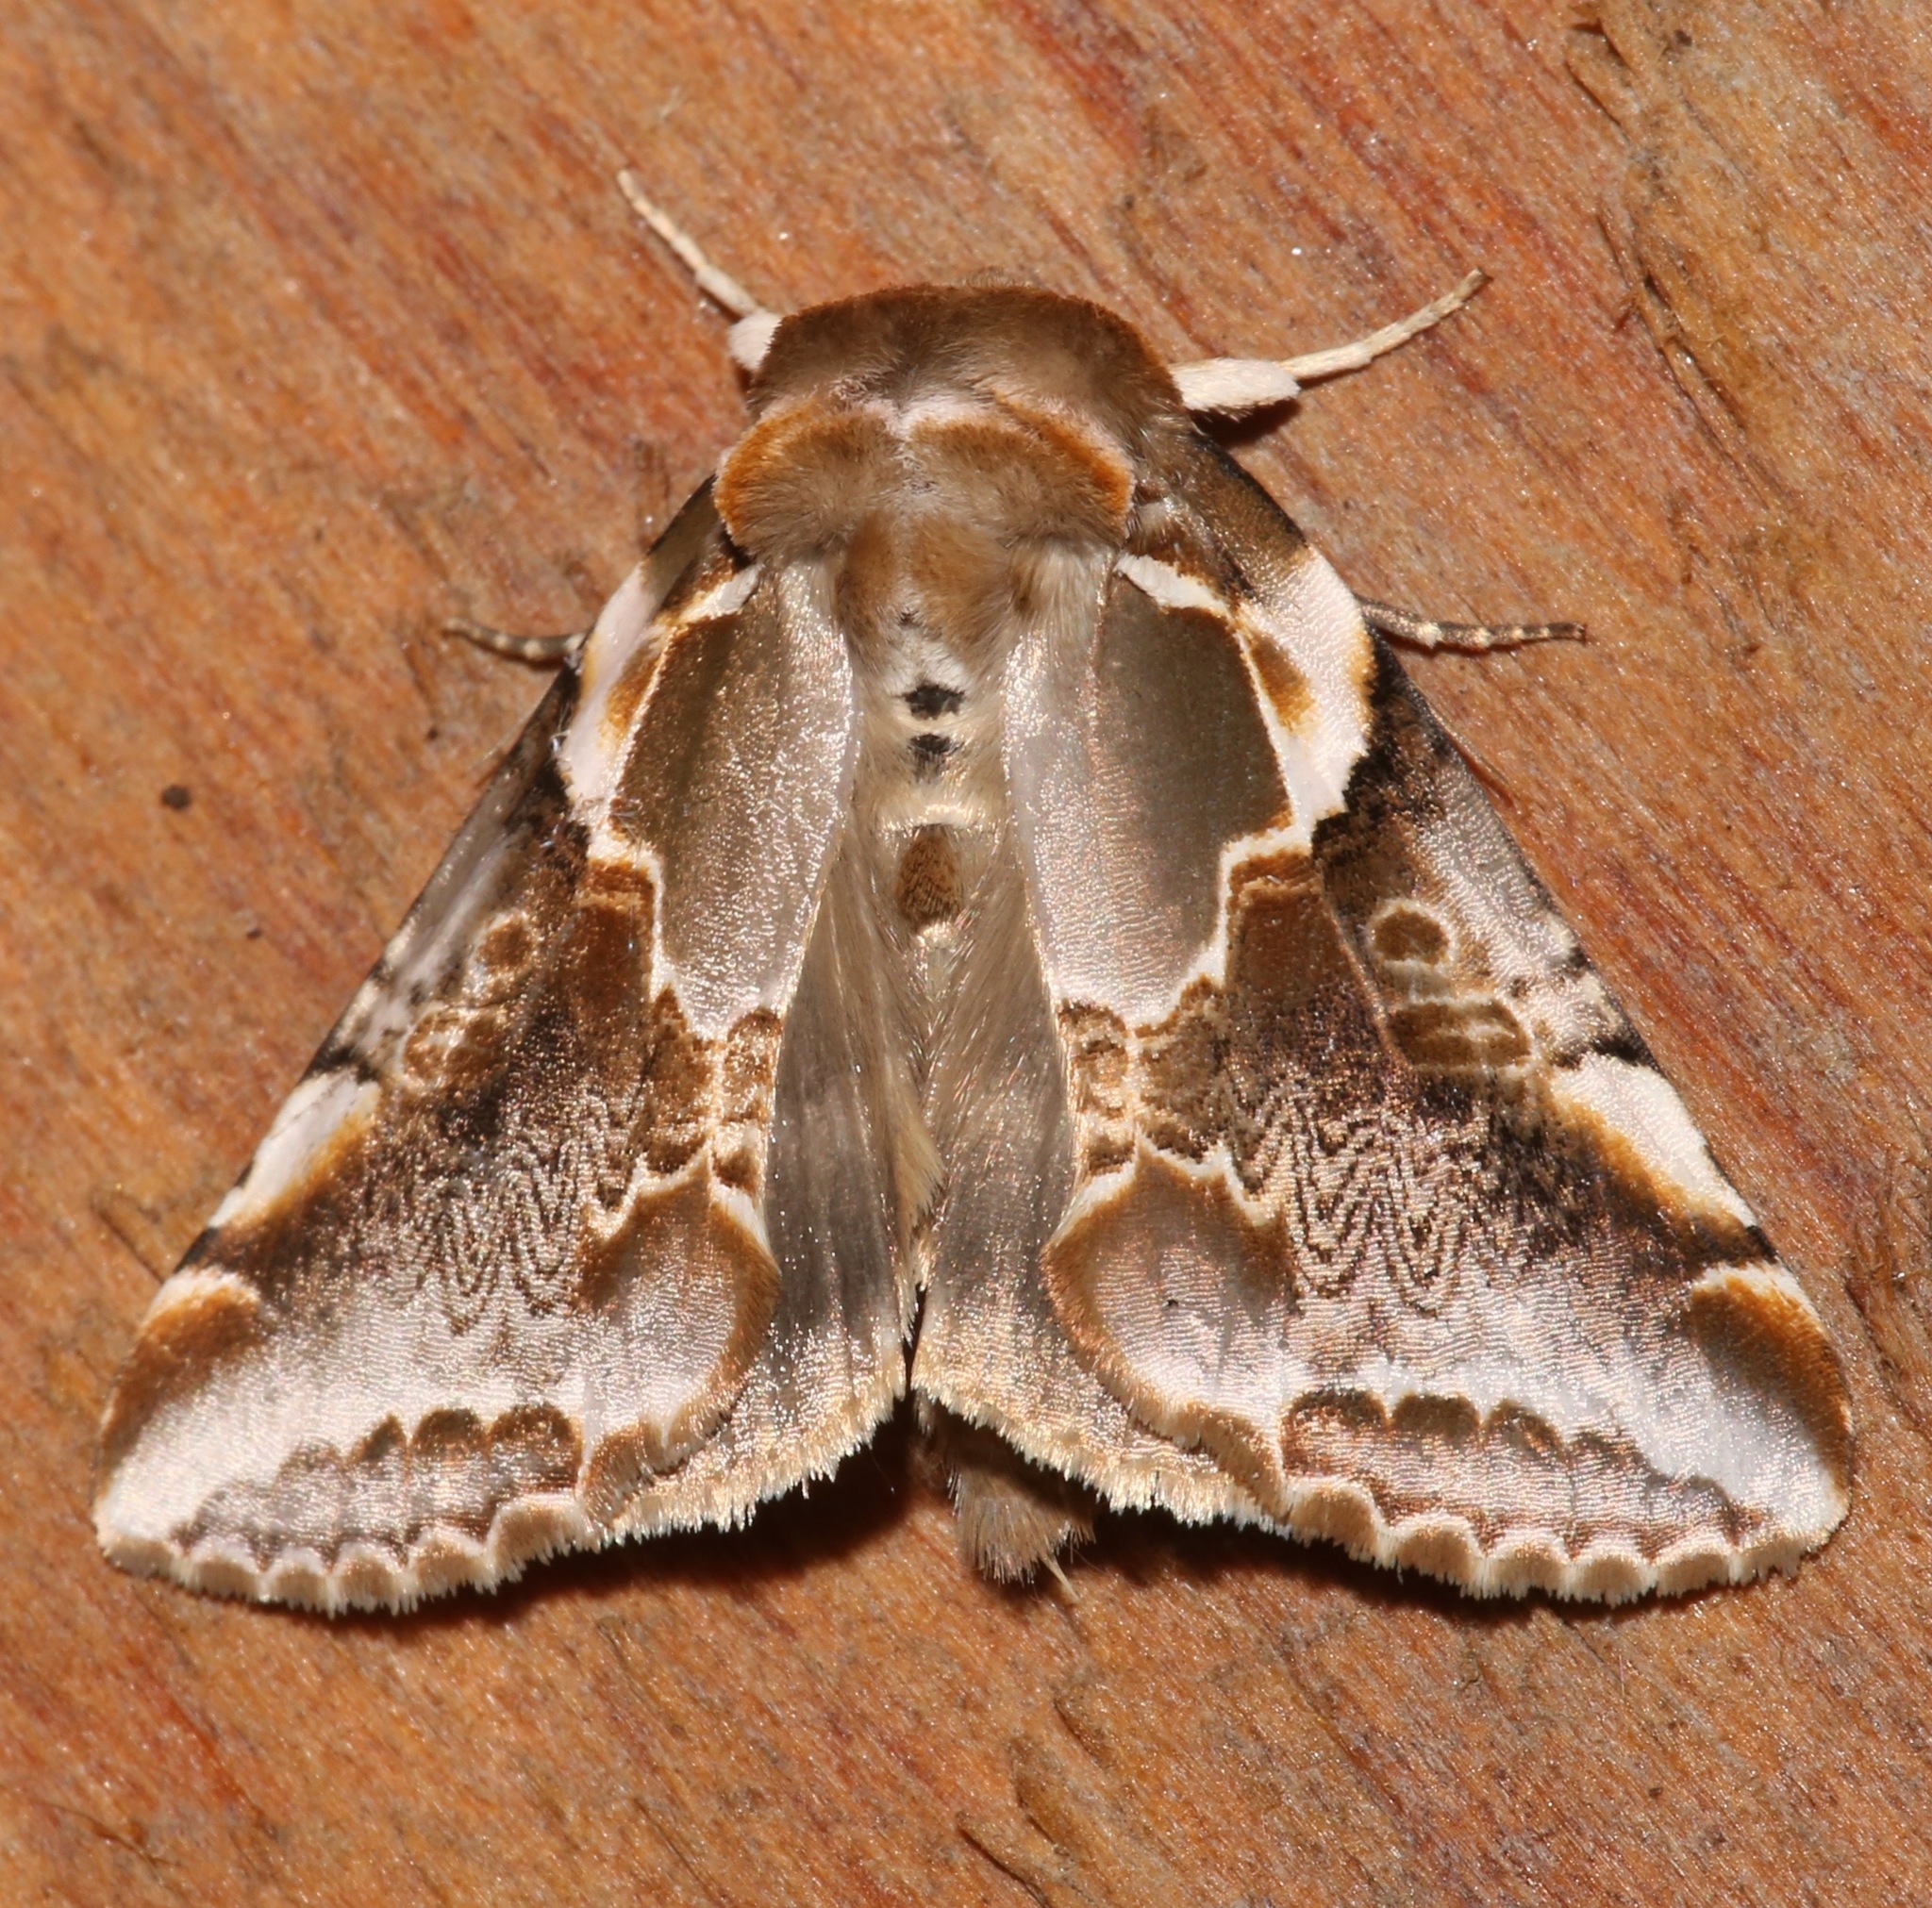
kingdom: Animalia
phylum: Arthropoda
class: Insecta
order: Lepidoptera
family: Drepanidae
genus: Habrosyne
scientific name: Habrosyne gloriosa
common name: Glorious habrosyne moth
